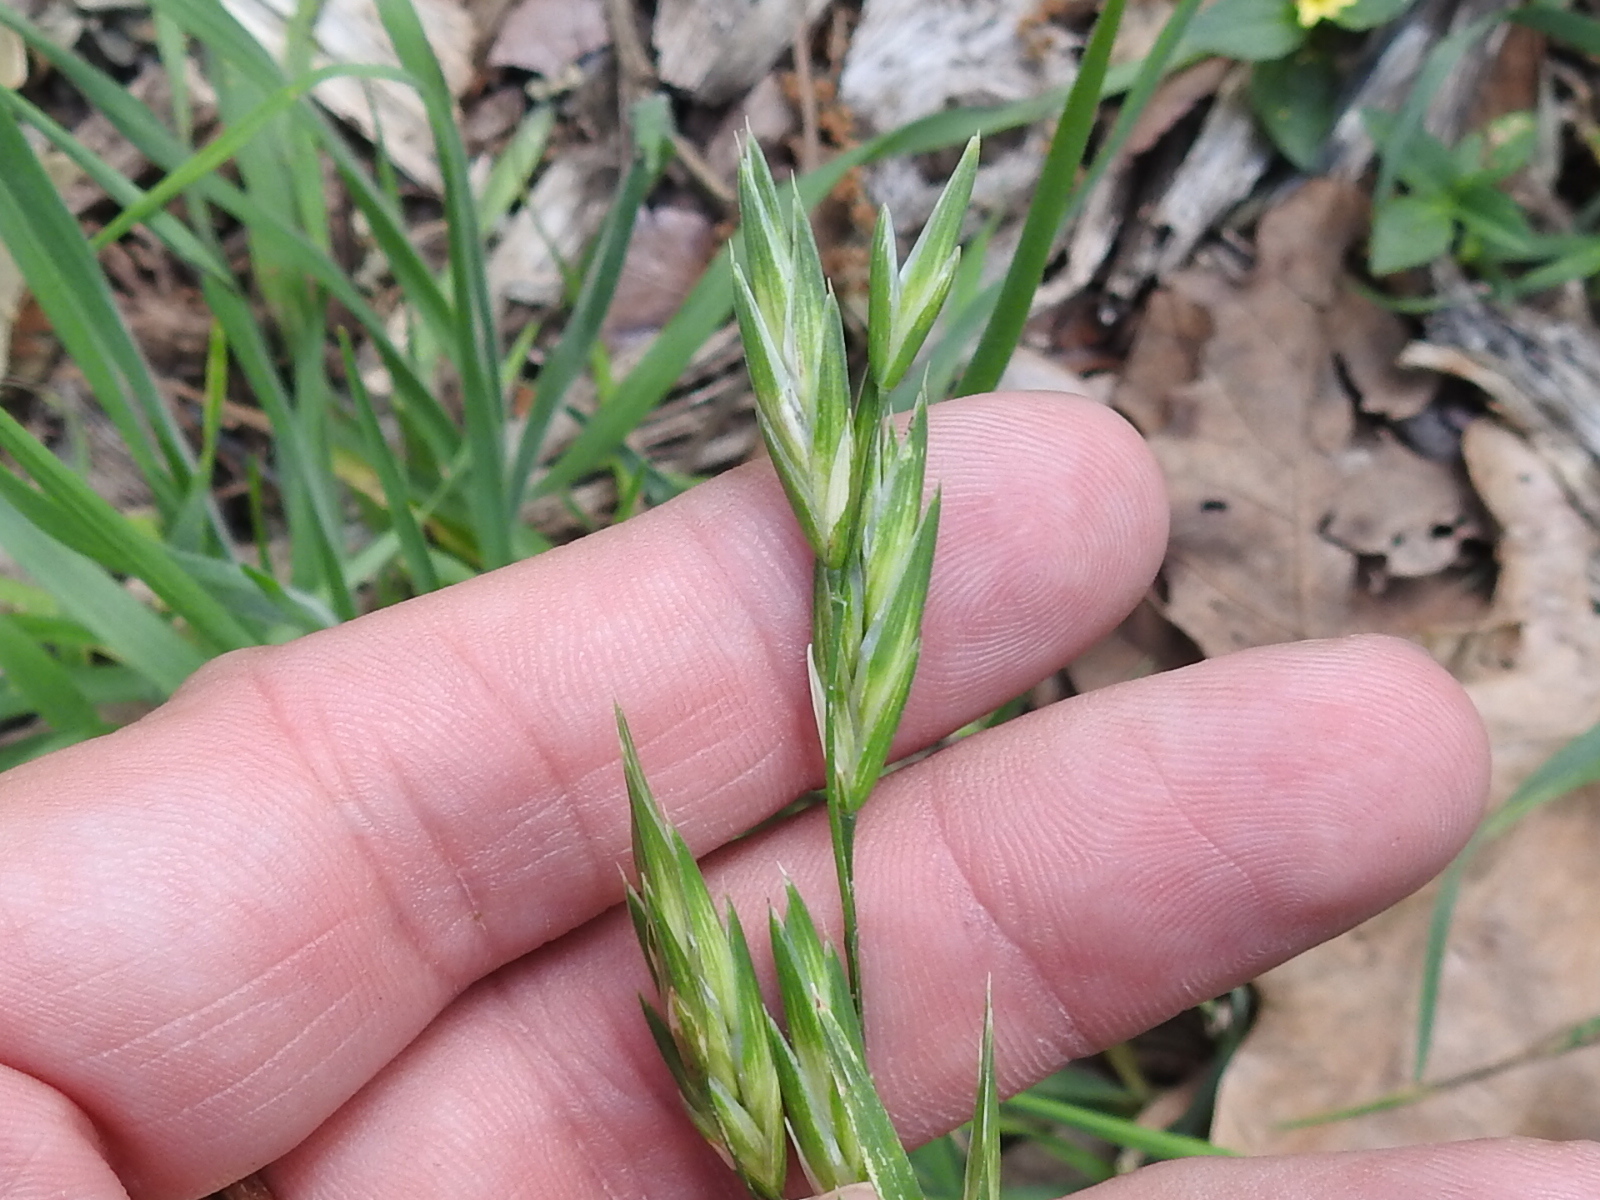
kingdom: Plantae
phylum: Tracheophyta
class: Liliopsida
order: Poales
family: Poaceae
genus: Bromus
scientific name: Bromus catharticus
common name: Rescuegrass
